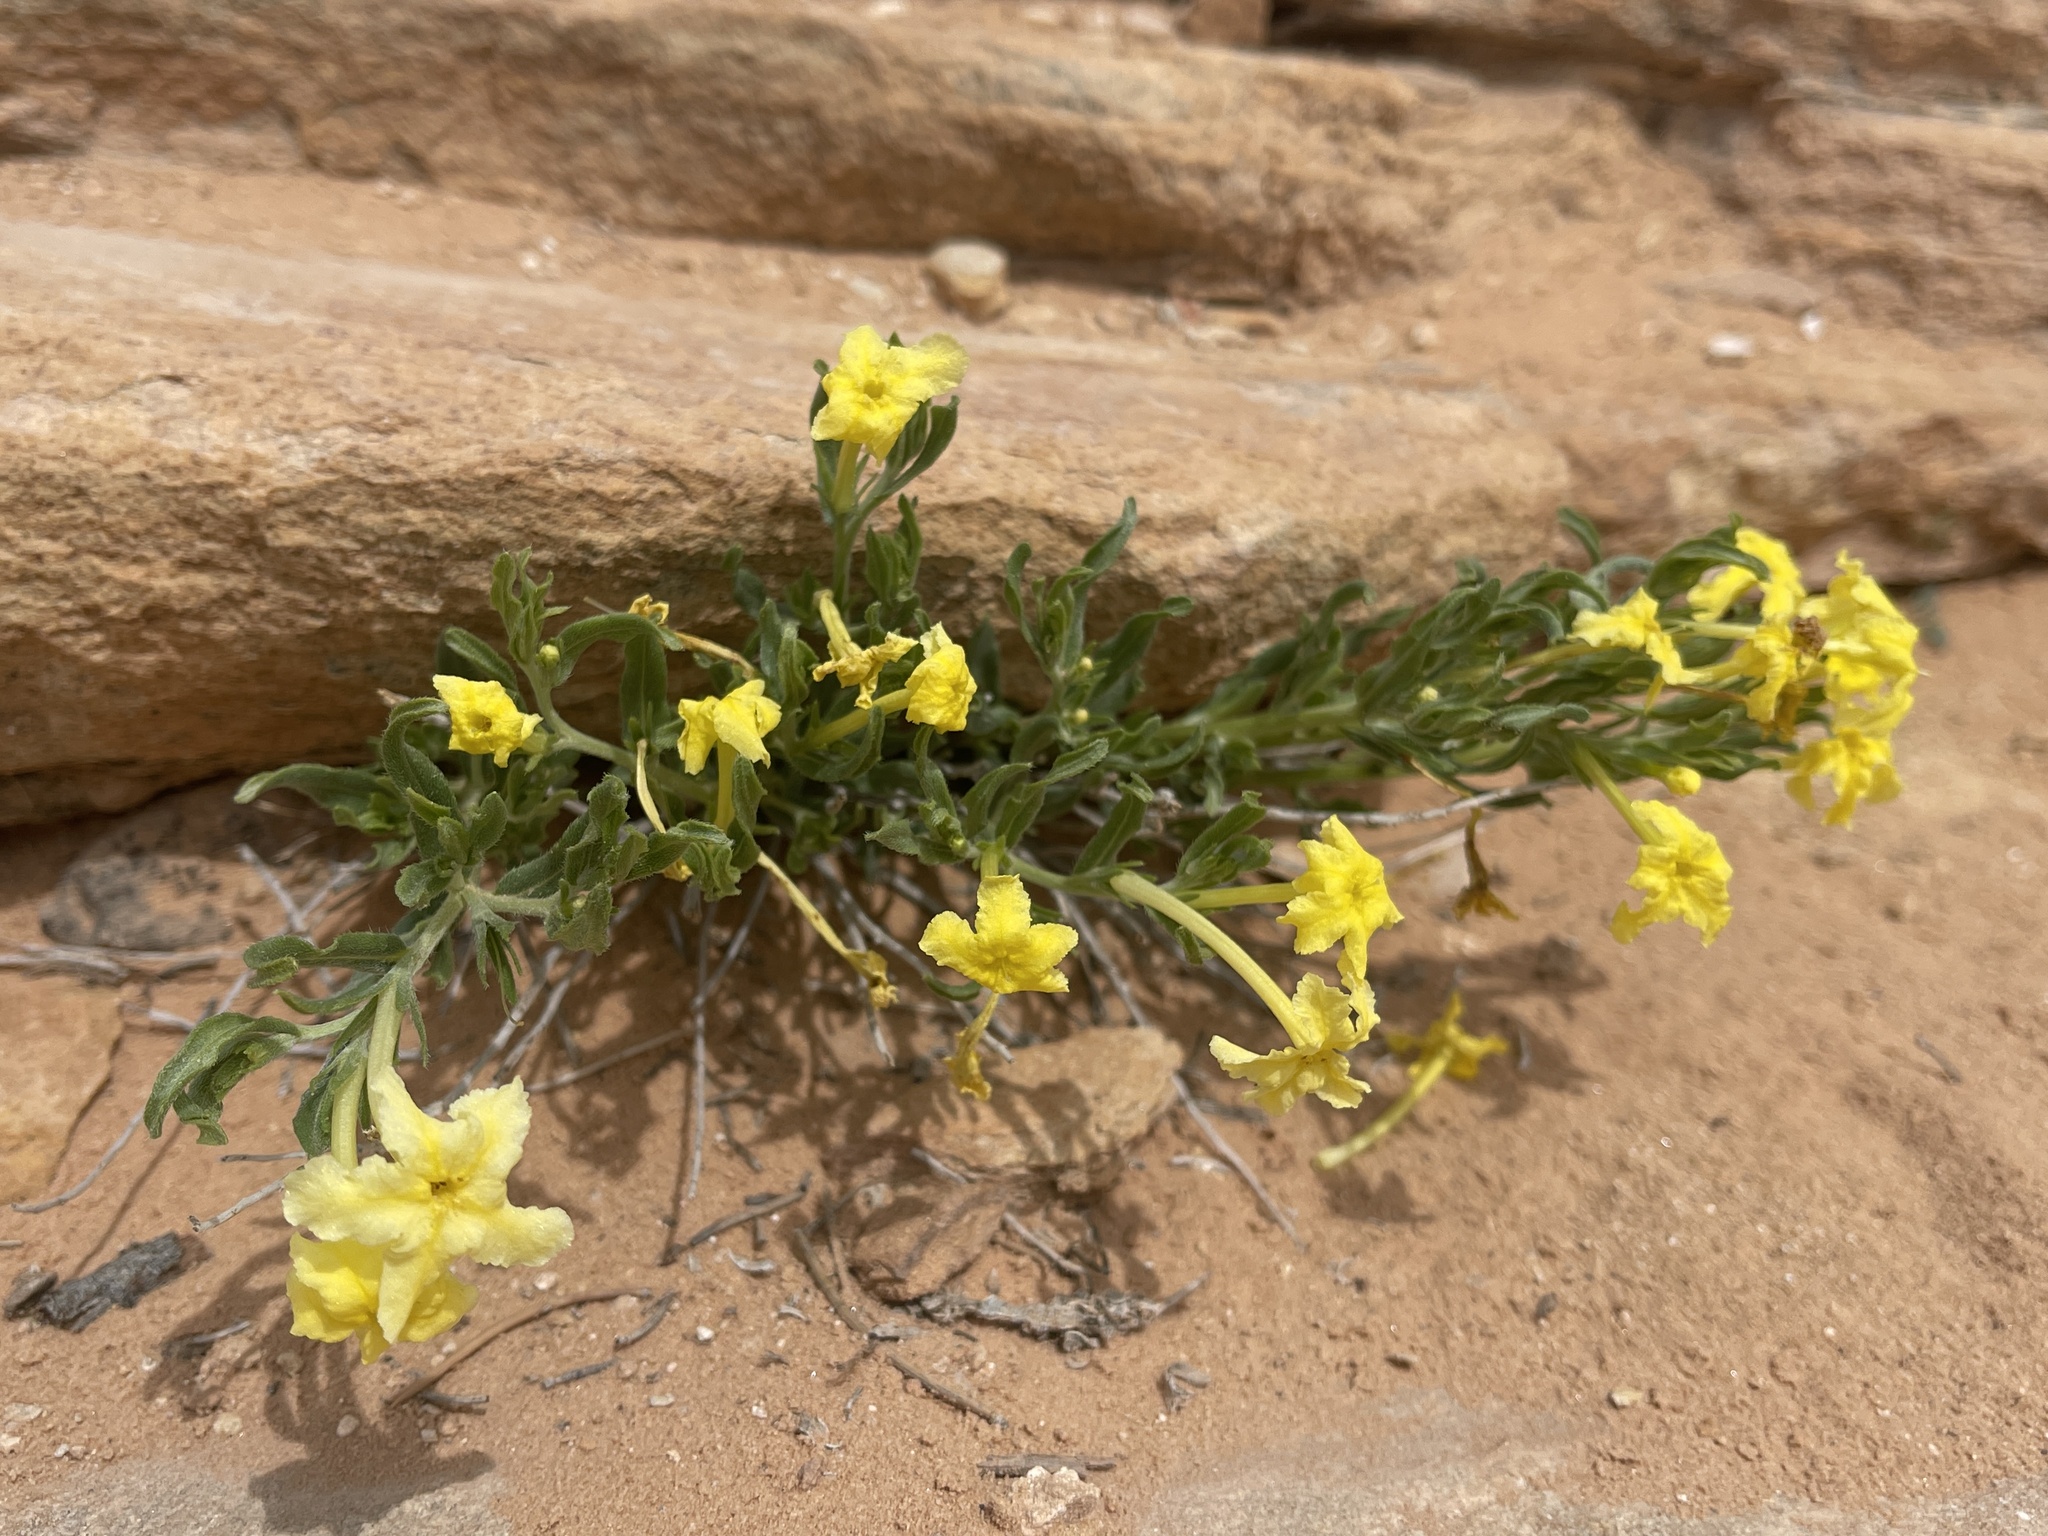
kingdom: Plantae
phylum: Tracheophyta
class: Magnoliopsida
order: Boraginales
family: Boraginaceae
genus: Lithospermum
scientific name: Lithospermum incisum
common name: Fringed gromwell
